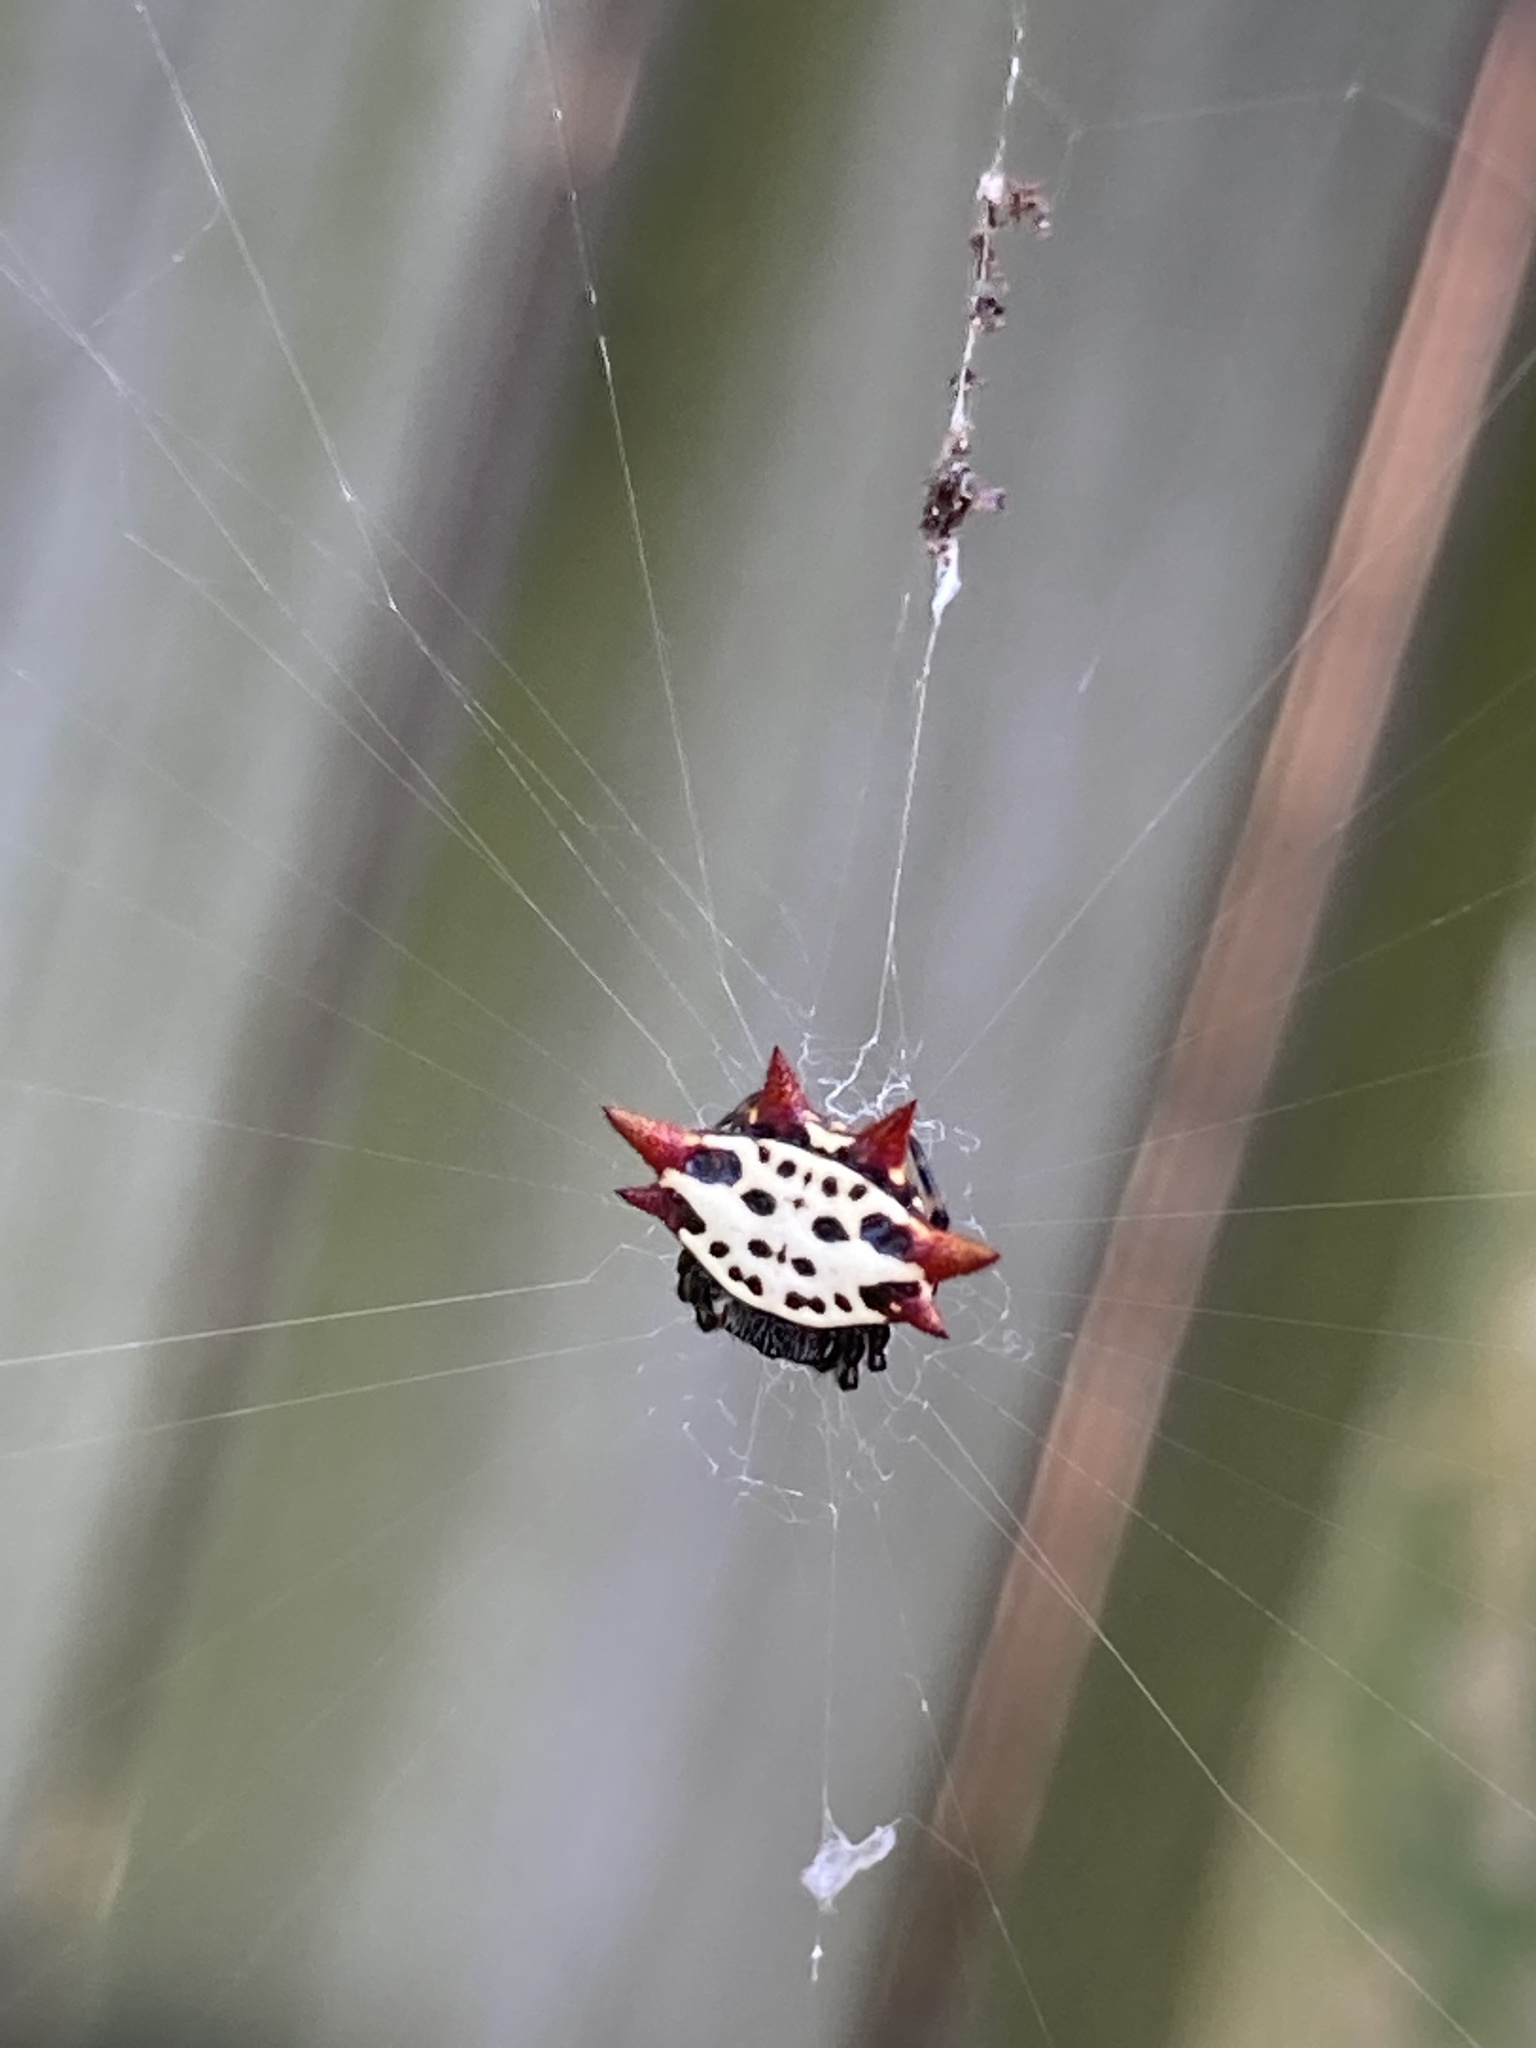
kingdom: Animalia
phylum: Arthropoda
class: Arachnida
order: Araneae
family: Araneidae
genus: Gasteracantha
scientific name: Gasteracantha cancriformis
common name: Orb weavers
